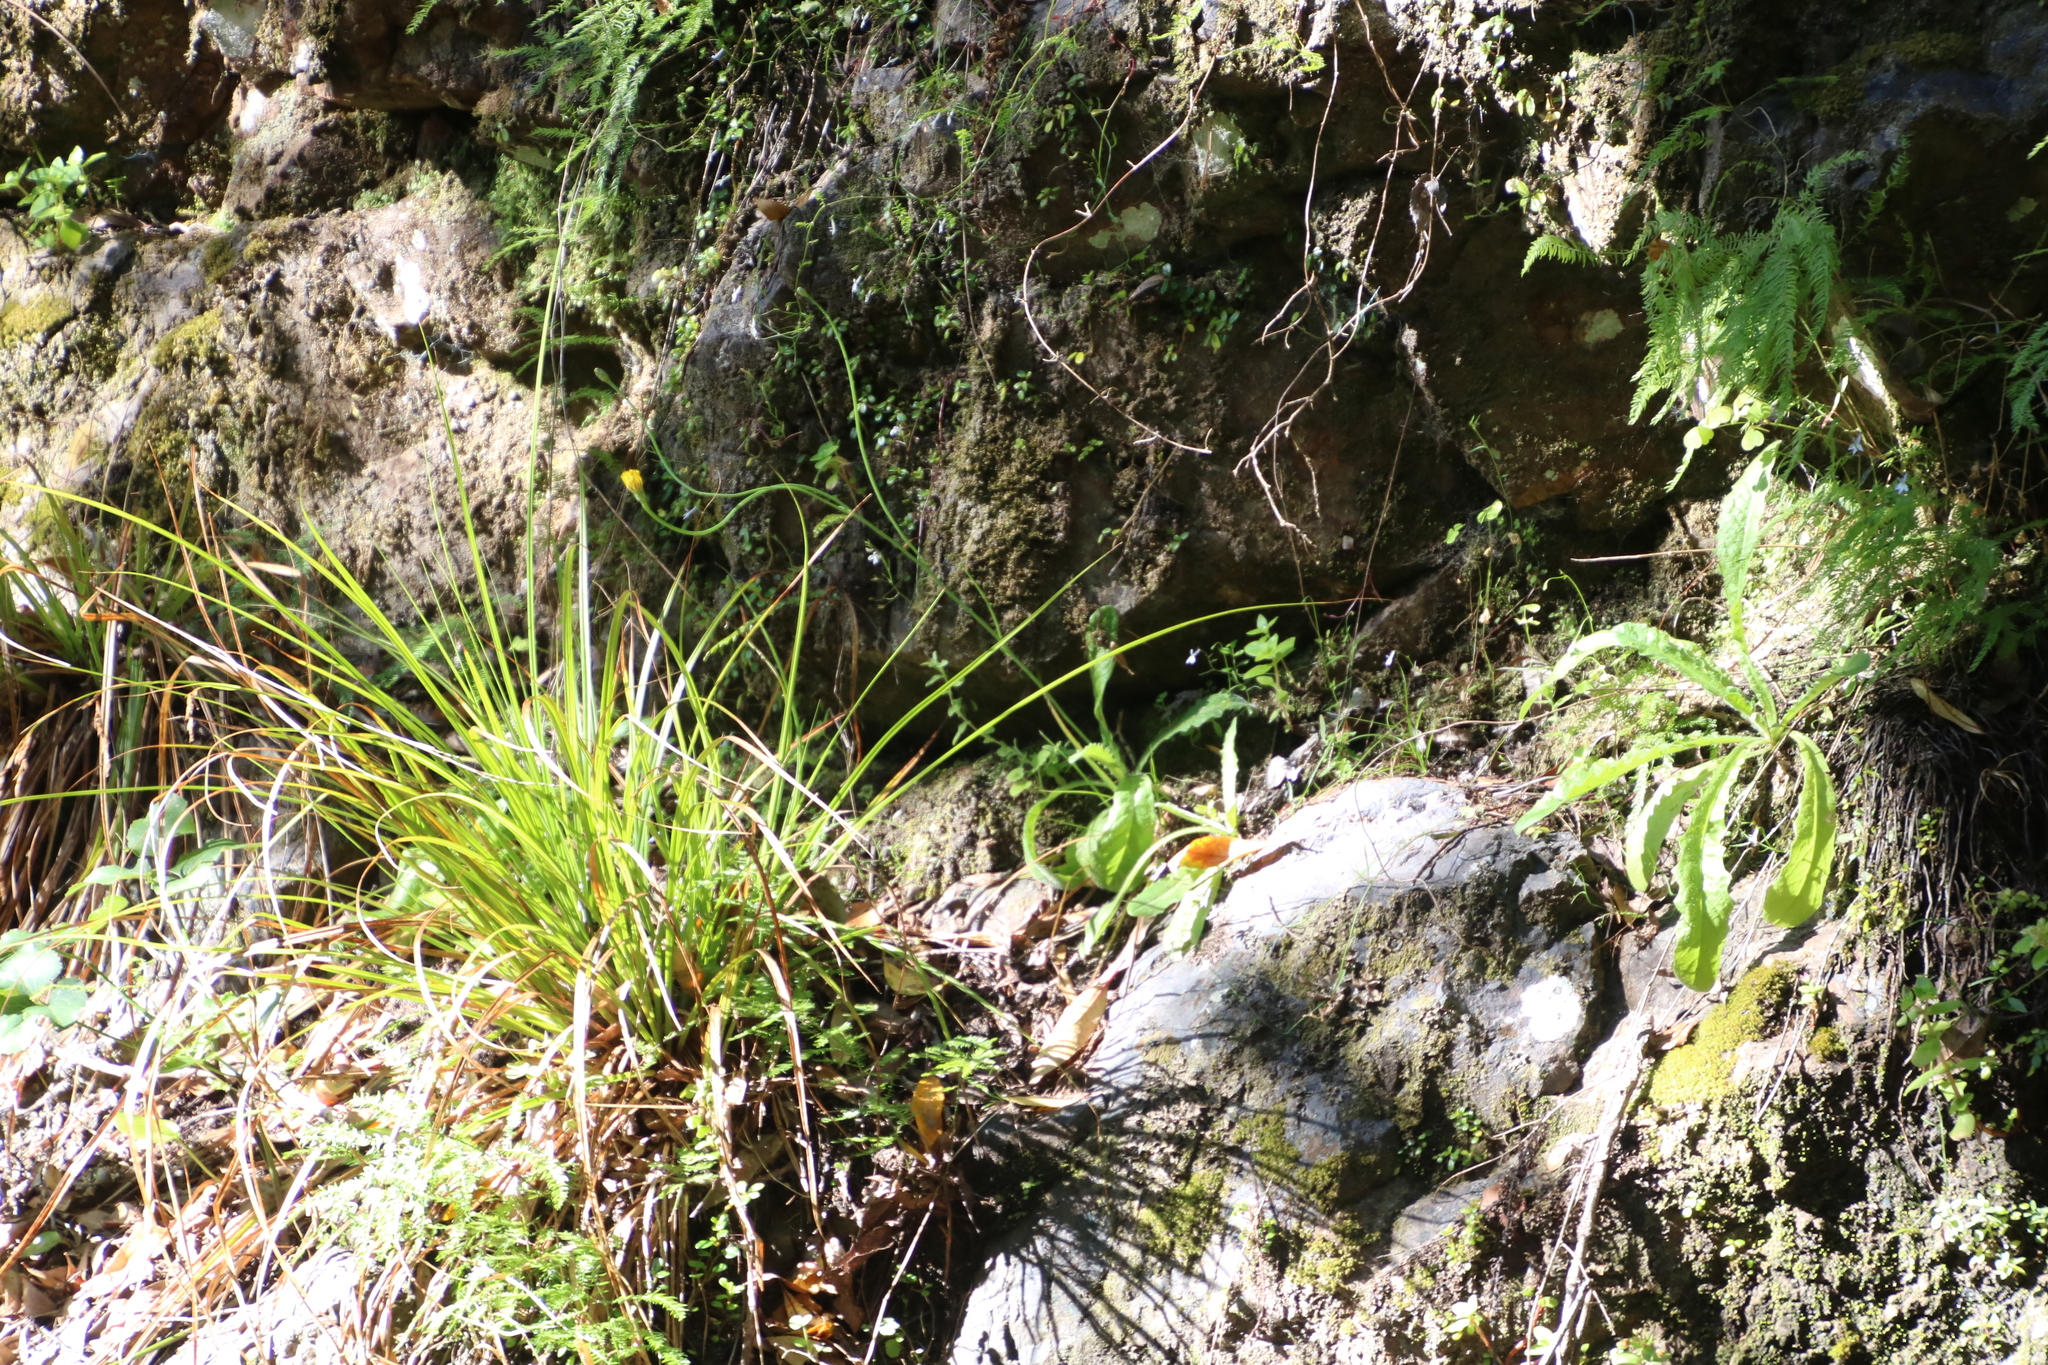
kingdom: Plantae
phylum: Tracheophyta
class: Magnoliopsida
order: Asterales
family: Asteraceae
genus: Hypochaeris
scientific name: Hypochaeris radicata
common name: Flatweed
